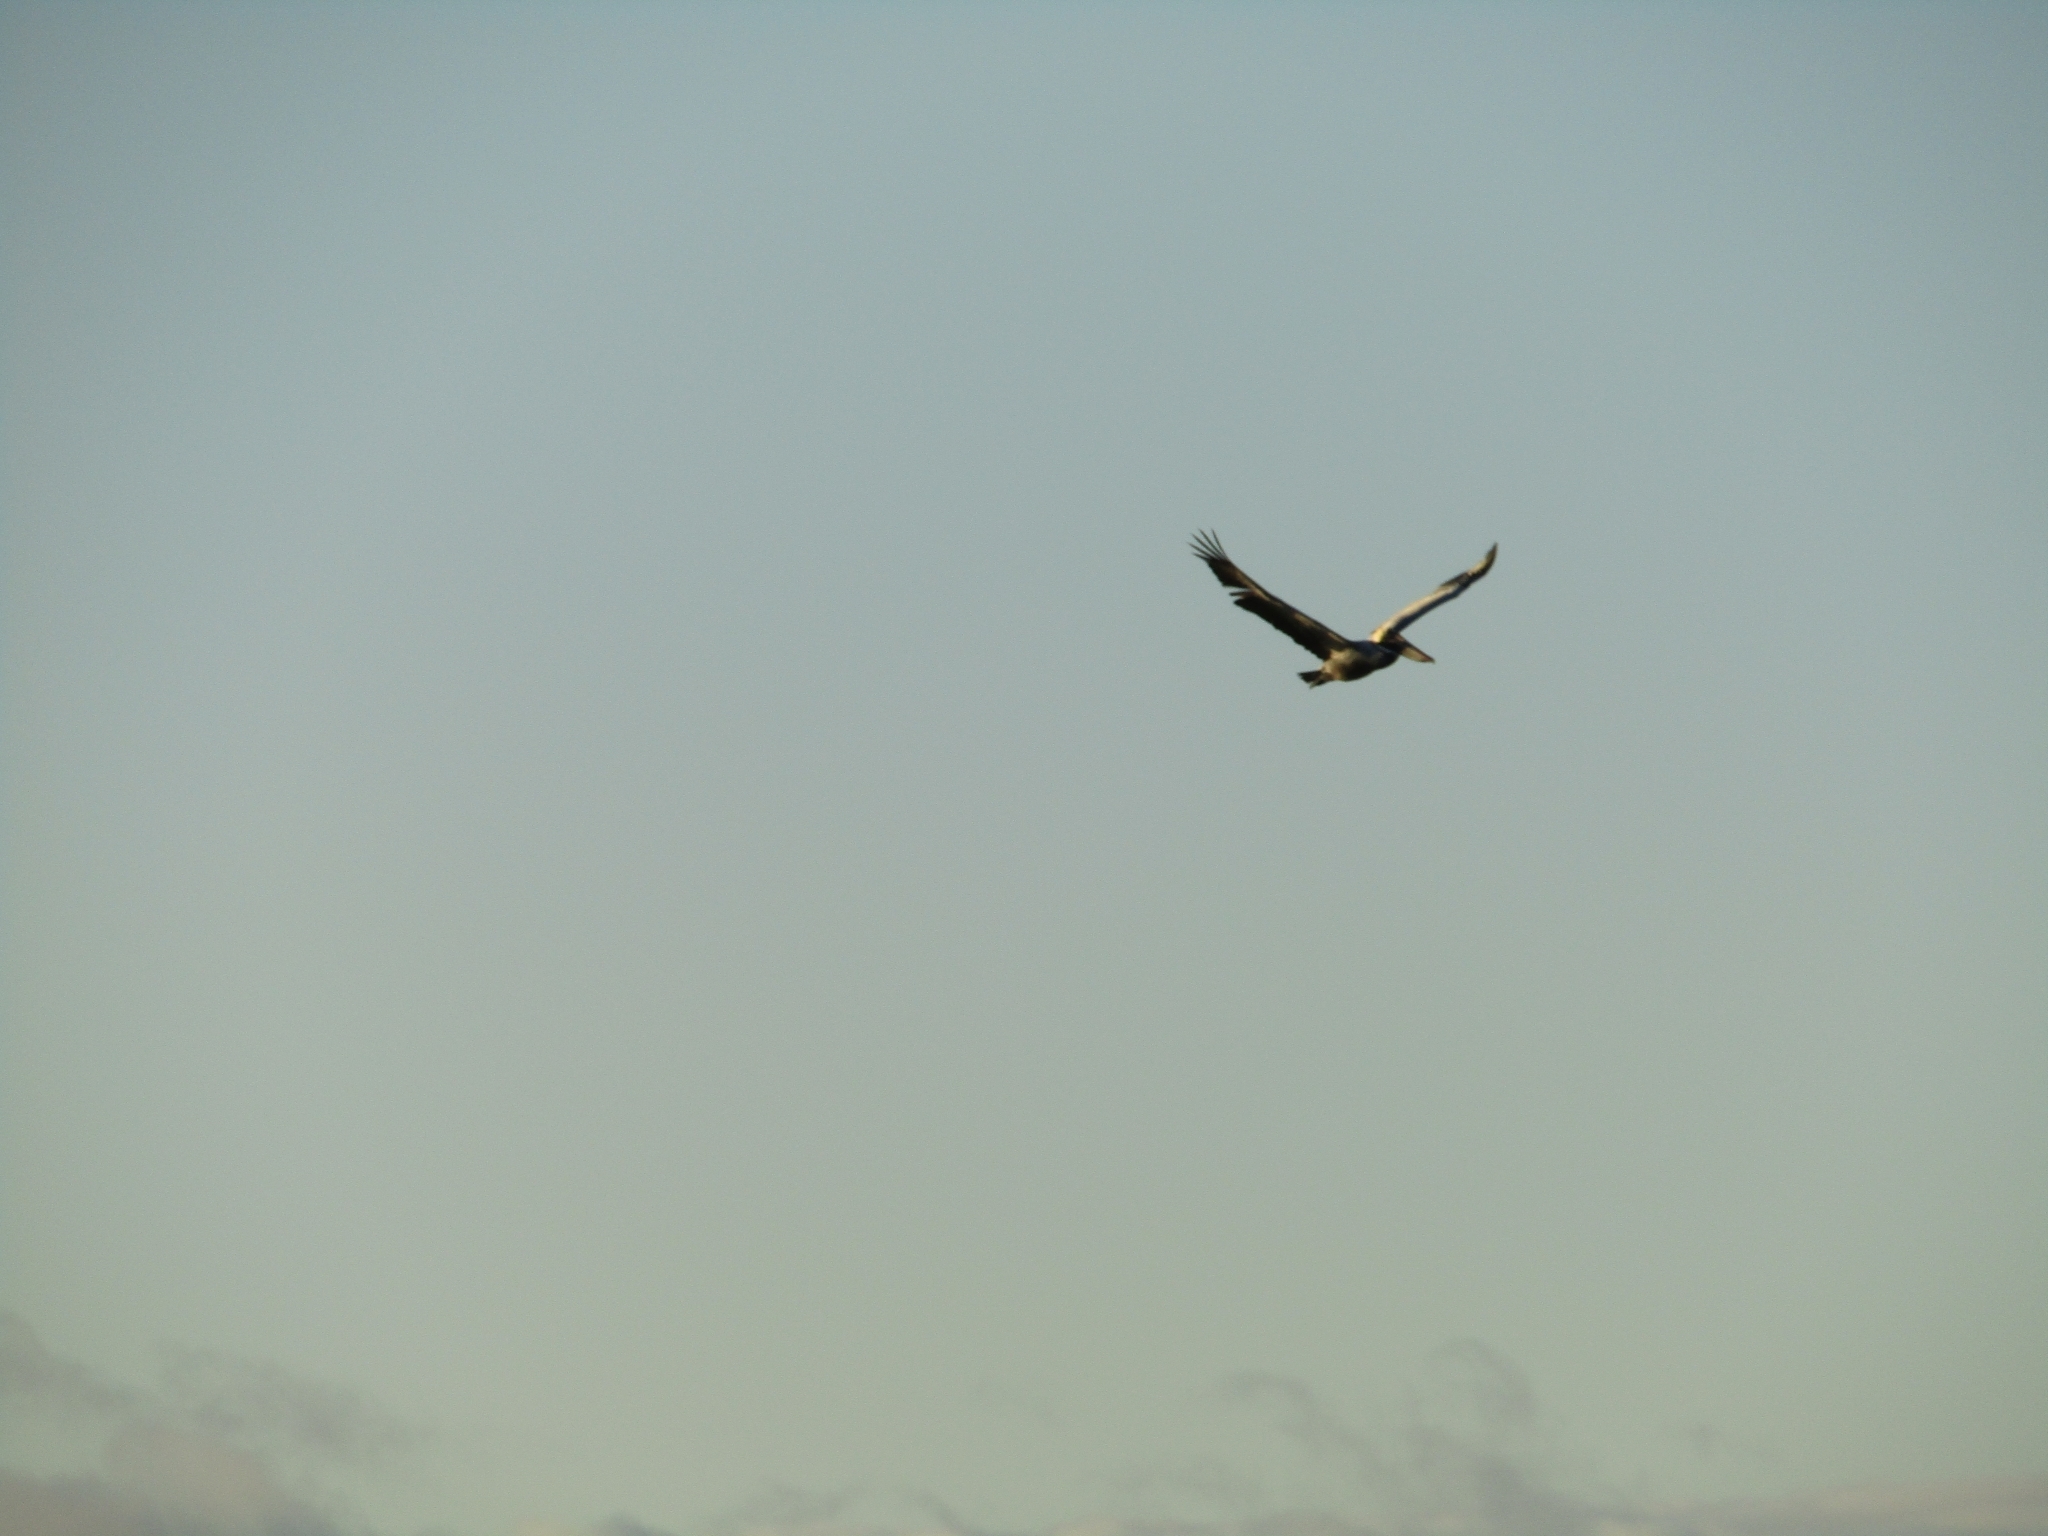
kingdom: Animalia
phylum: Chordata
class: Aves
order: Pelecaniformes
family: Pelecanidae
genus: Pelecanus
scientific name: Pelecanus occidentalis
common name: Brown pelican
